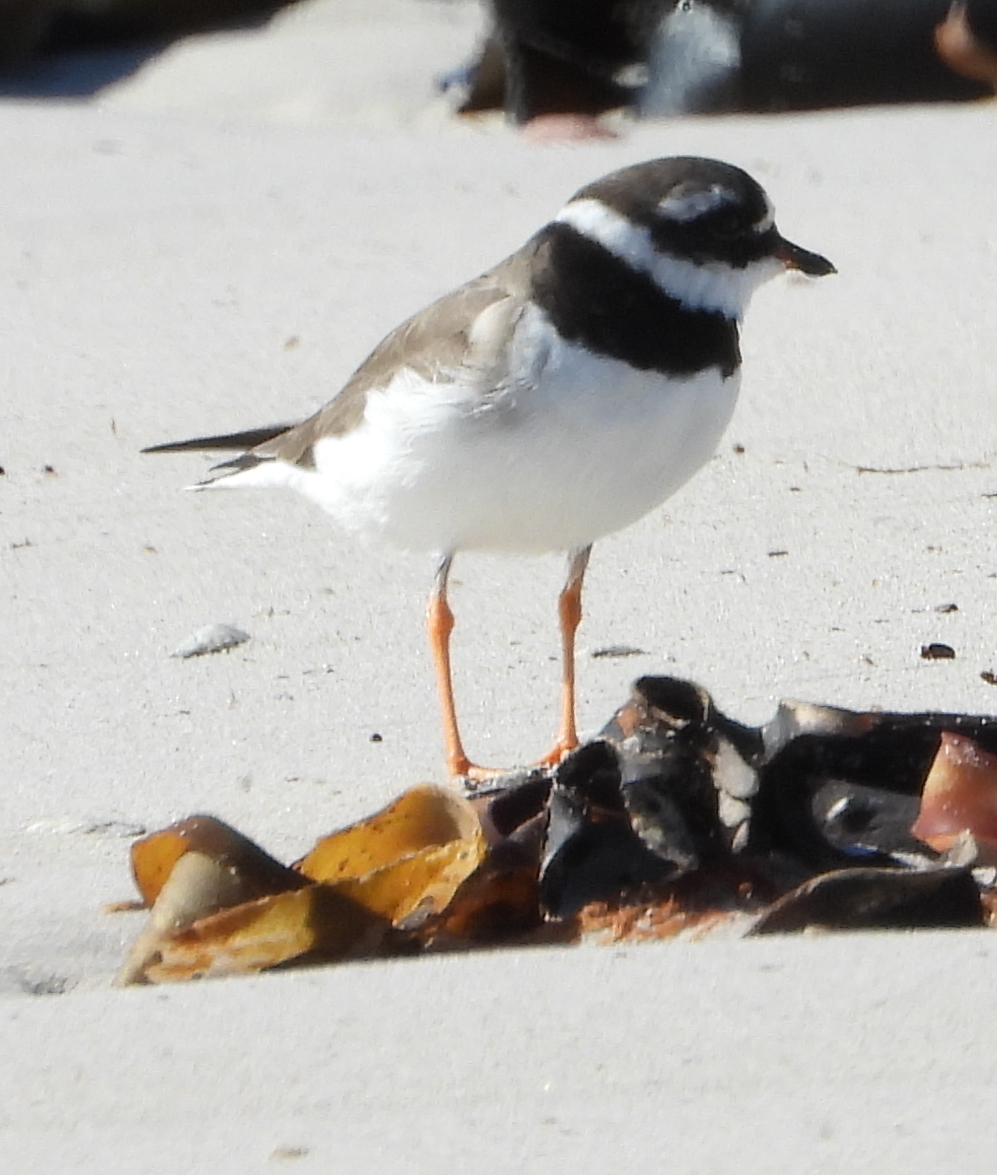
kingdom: Animalia
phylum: Chordata
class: Aves
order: Charadriiformes
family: Charadriidae
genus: Charadrius
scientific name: Charadrius hiaticula
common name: Common ringed plover
